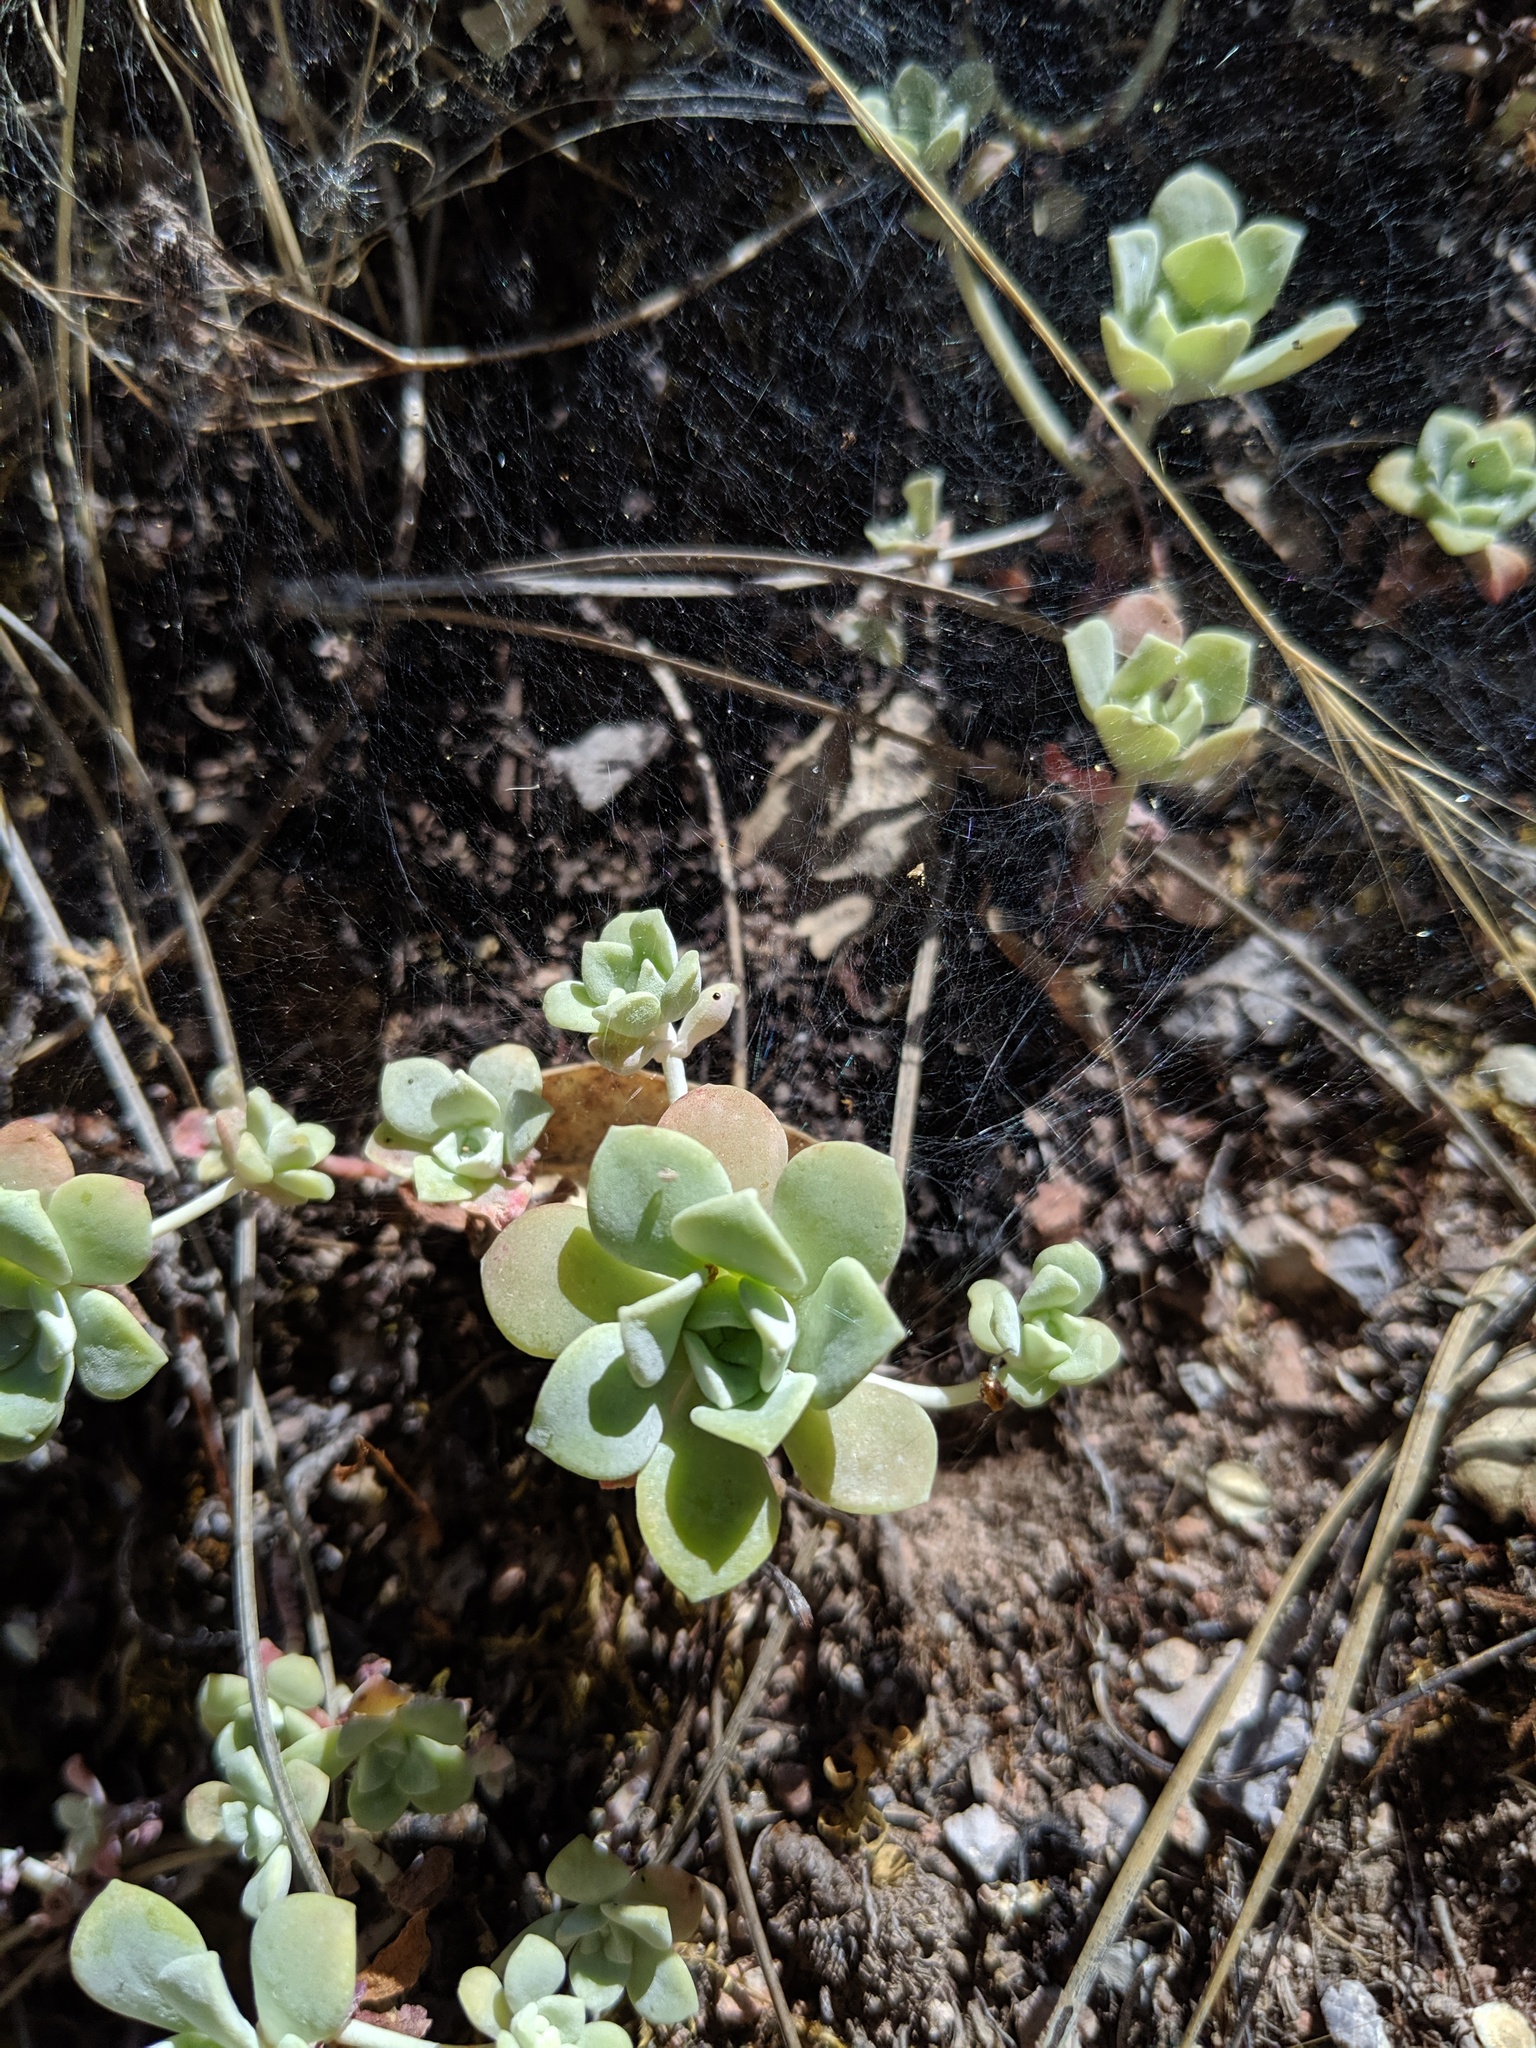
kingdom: Plantae
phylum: Tracheophyta
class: Magnoliopsida
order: Saxifragales
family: Crassulaceae
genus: Sedum
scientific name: Sedum spathulifolium
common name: Colorado stonecrop
